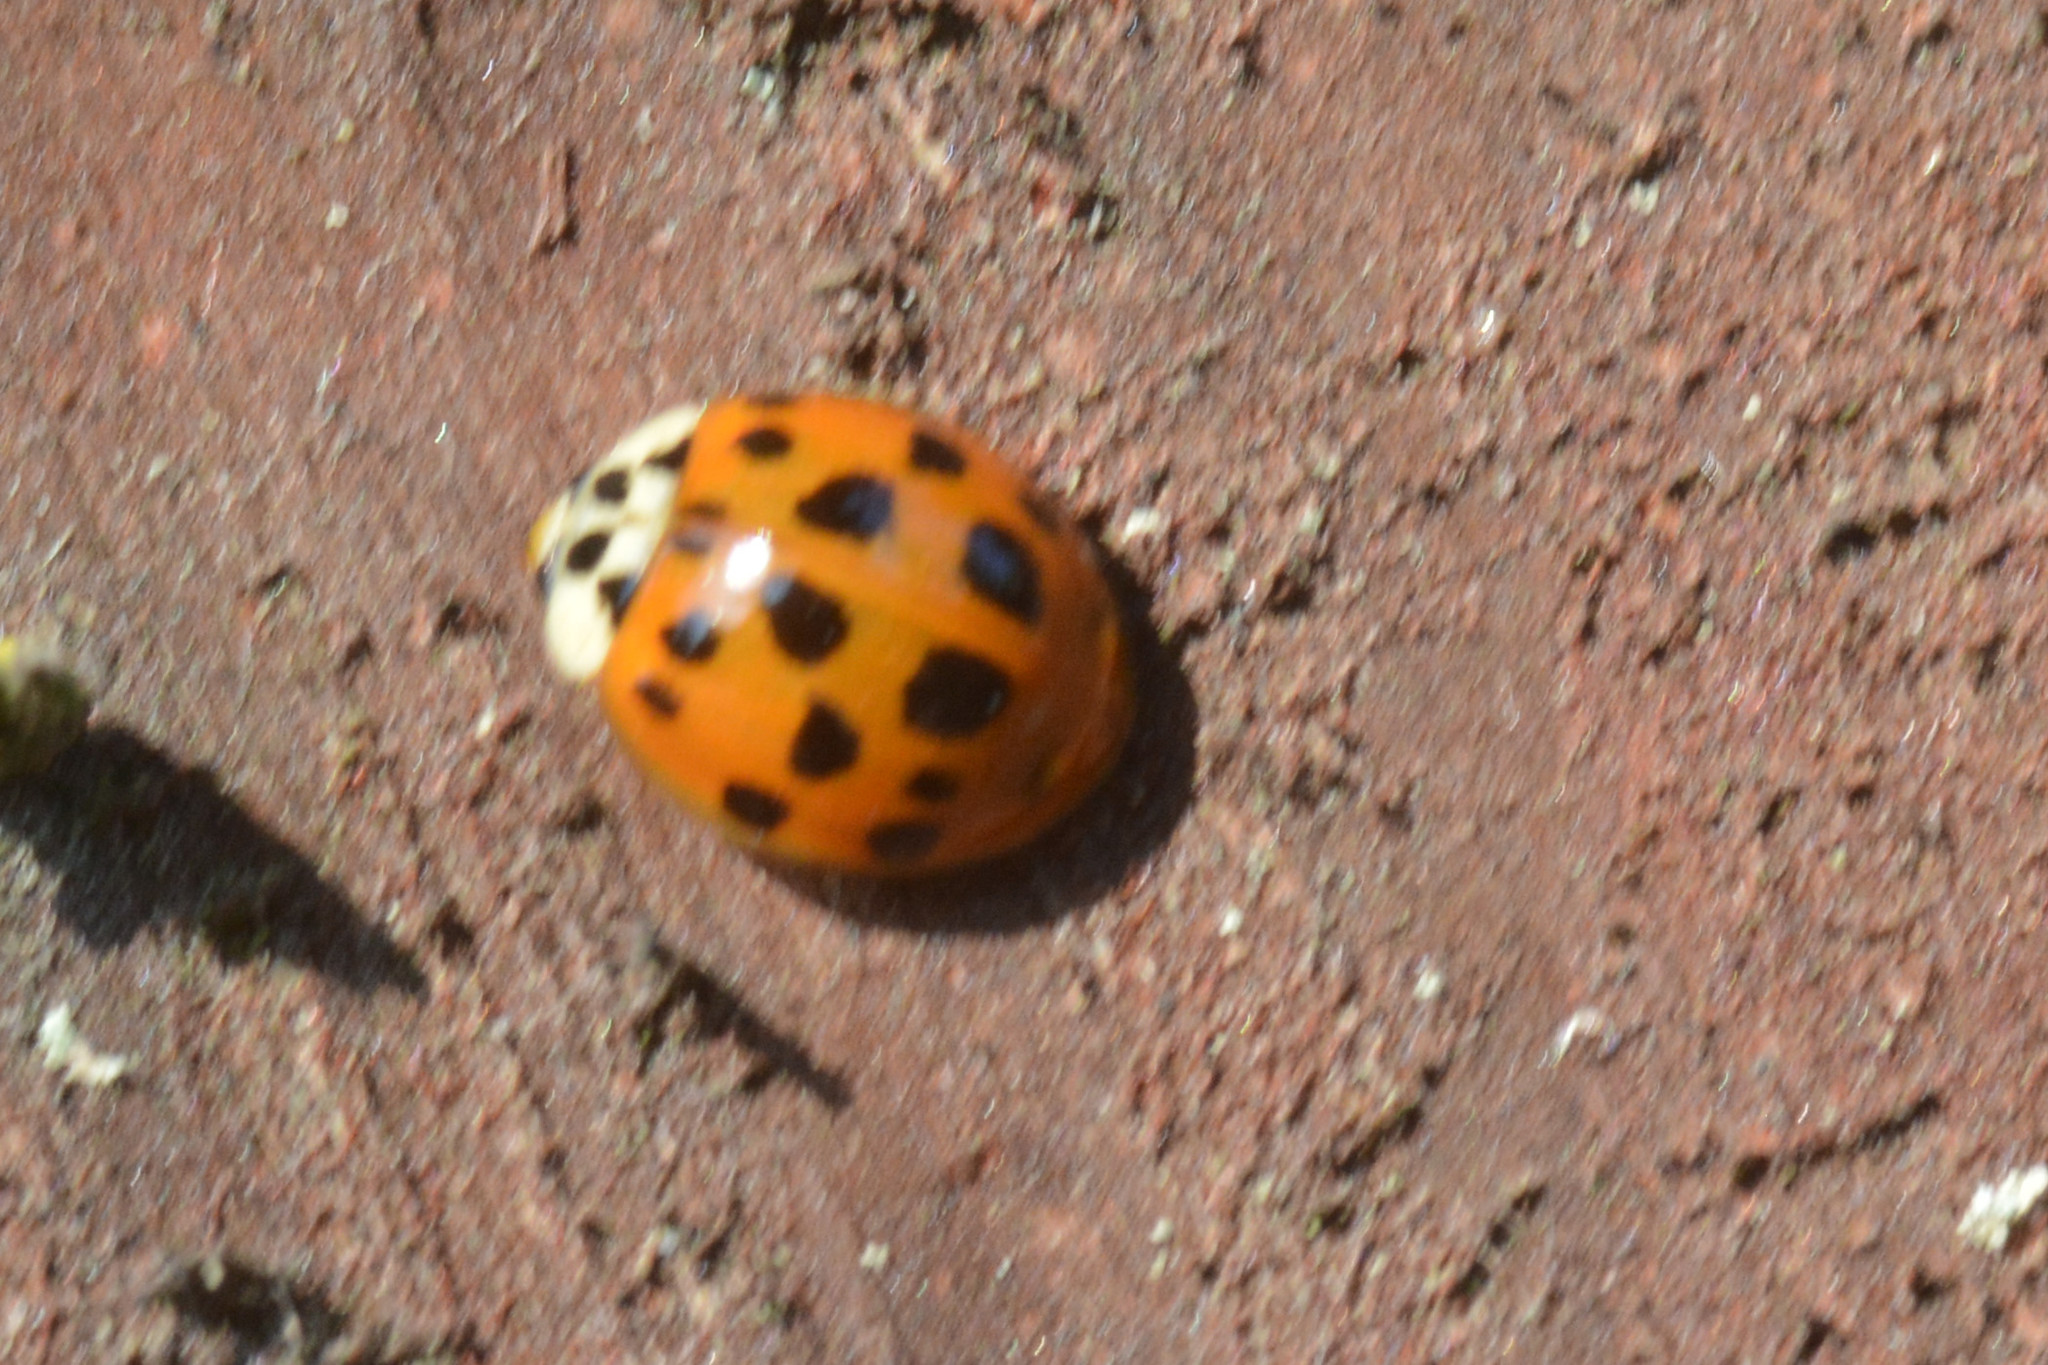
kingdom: Animalia
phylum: Arthropoda
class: Insecta
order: Coleoptera
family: Coccinellidae
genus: Harmonia
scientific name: Harmonia axyridis
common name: Harlequin ladybird
